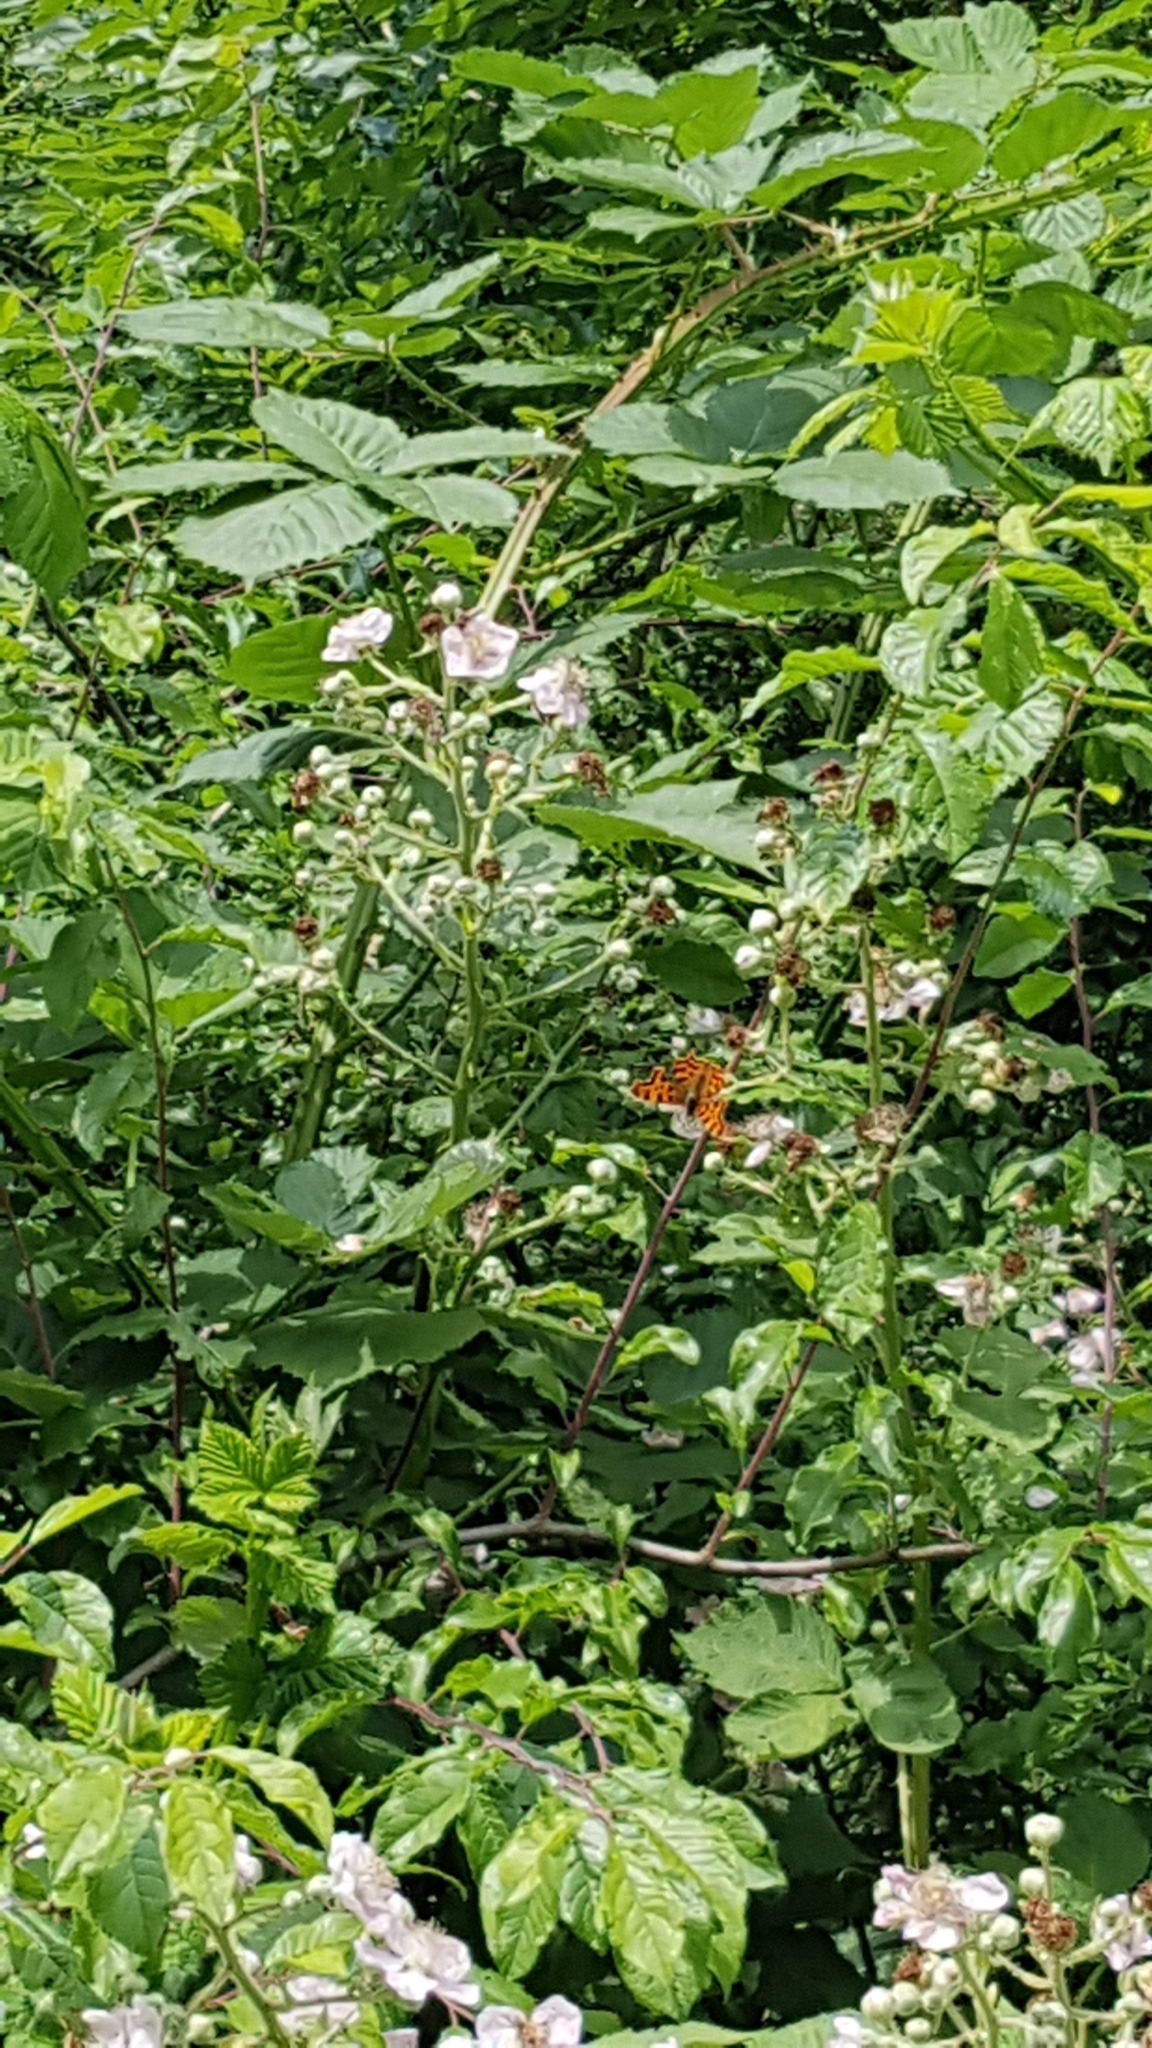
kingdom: Animalia
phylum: Arthropoda
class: Insecta
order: Lepidoptera
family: Nymphalidae
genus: Polygonia
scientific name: Polygonia c-album
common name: Comma
